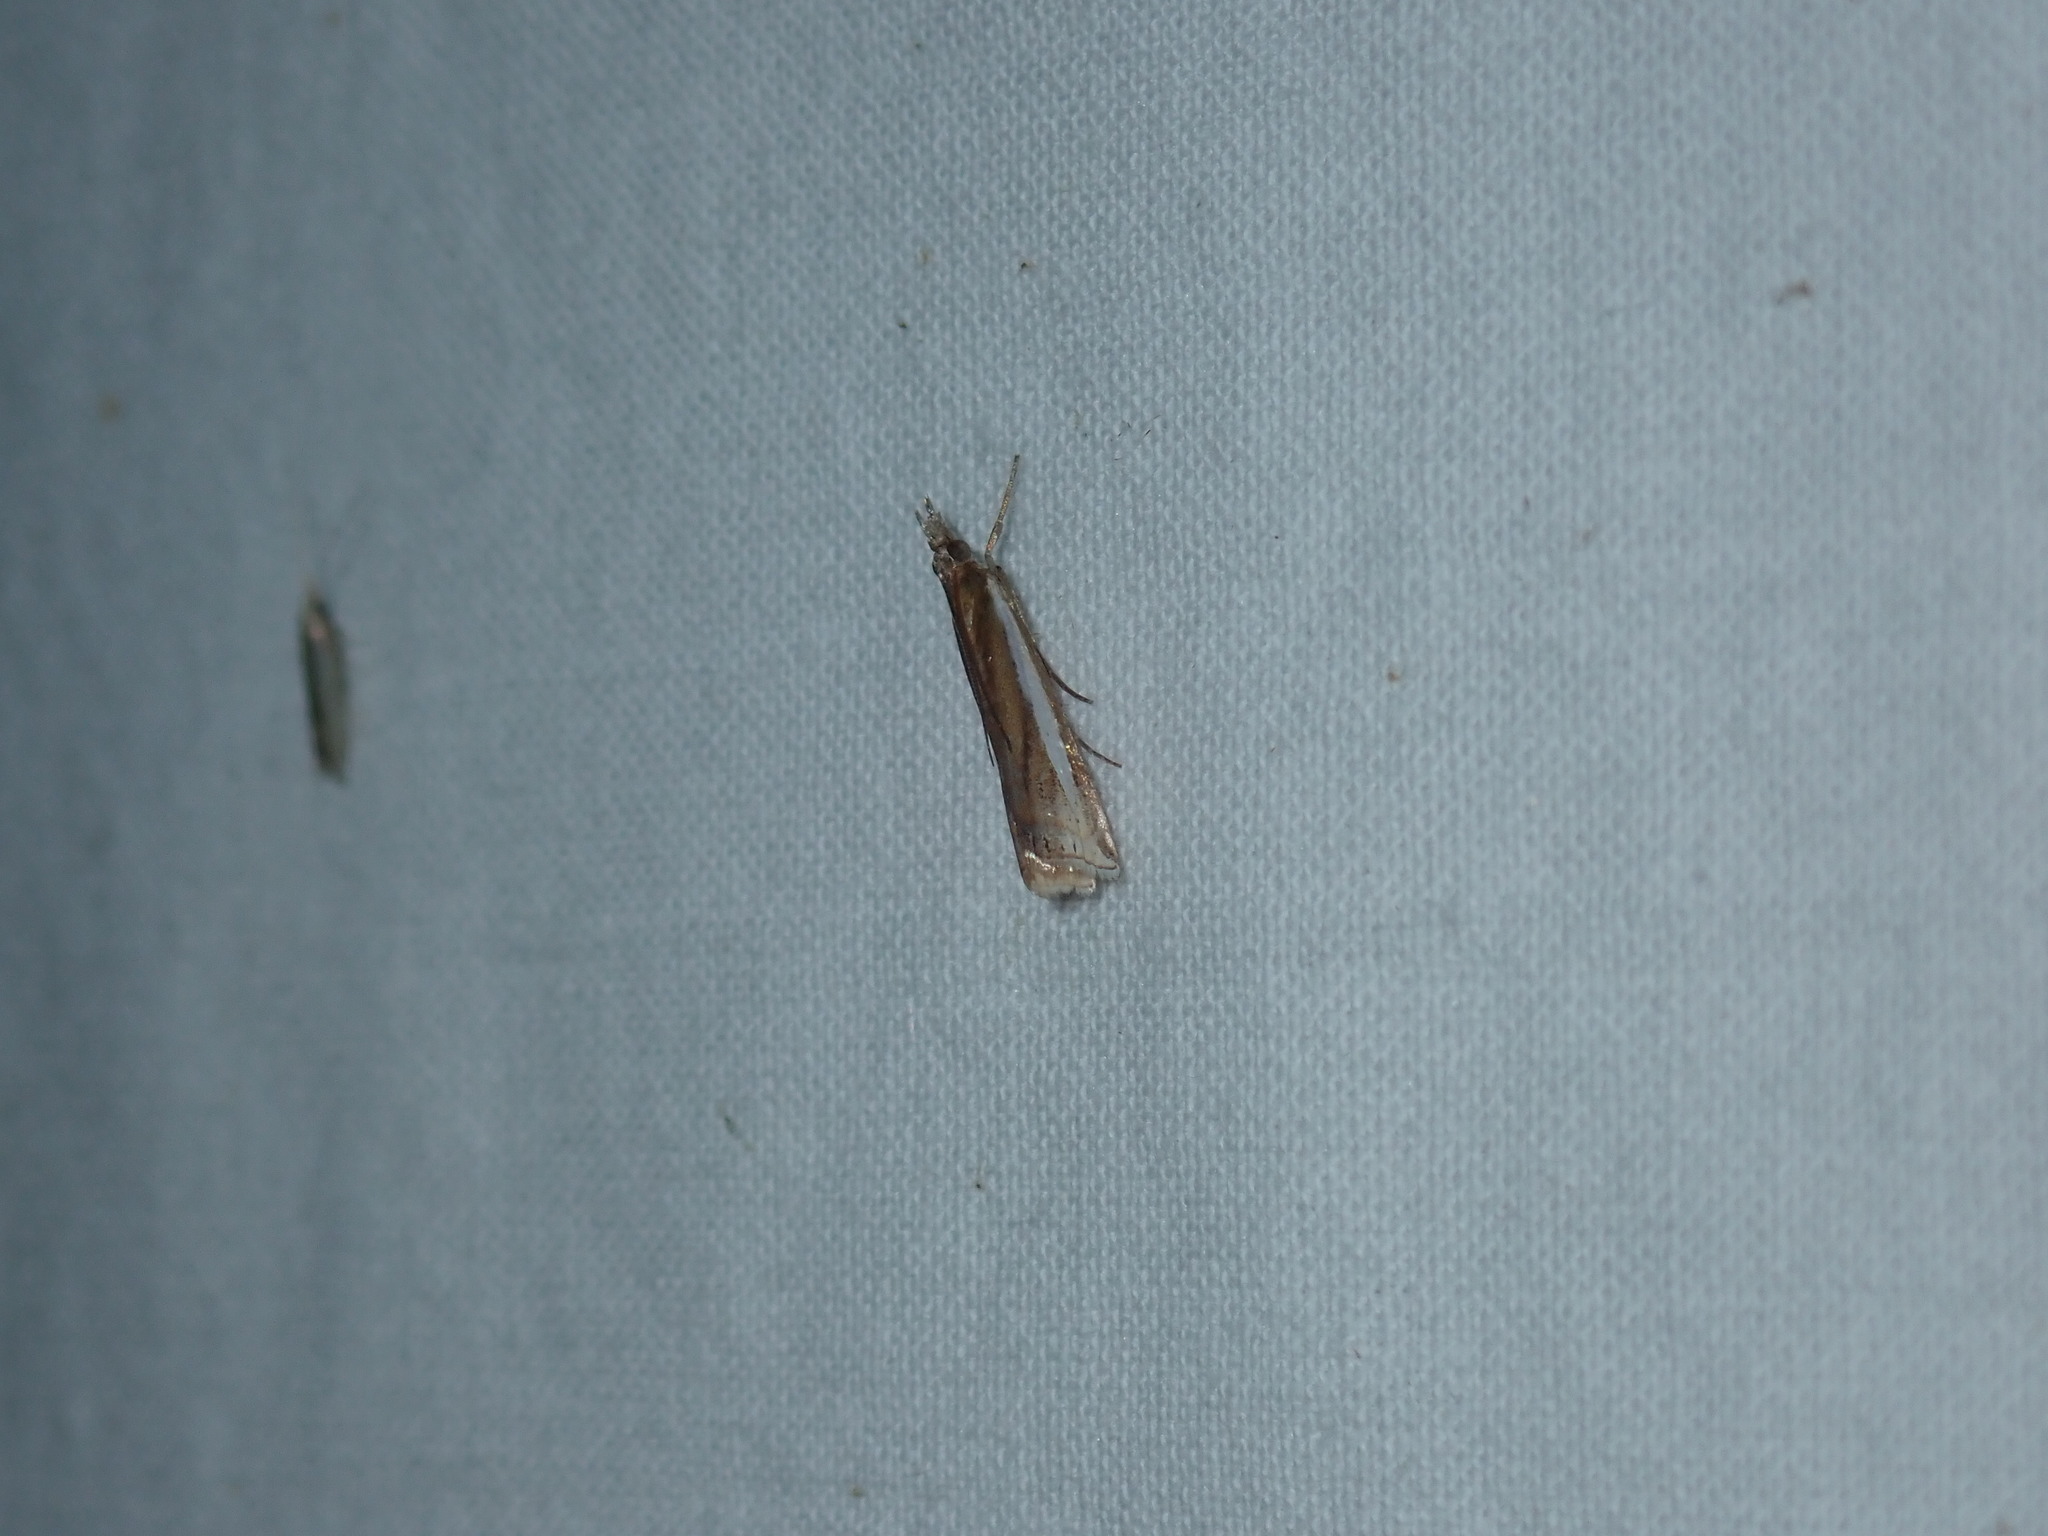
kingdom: Animalia
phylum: Arthropoda
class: Insecta
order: Lepidoptera
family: Crambidae
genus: Crambus
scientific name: Crambus praefectellus
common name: Common grass-veneer
